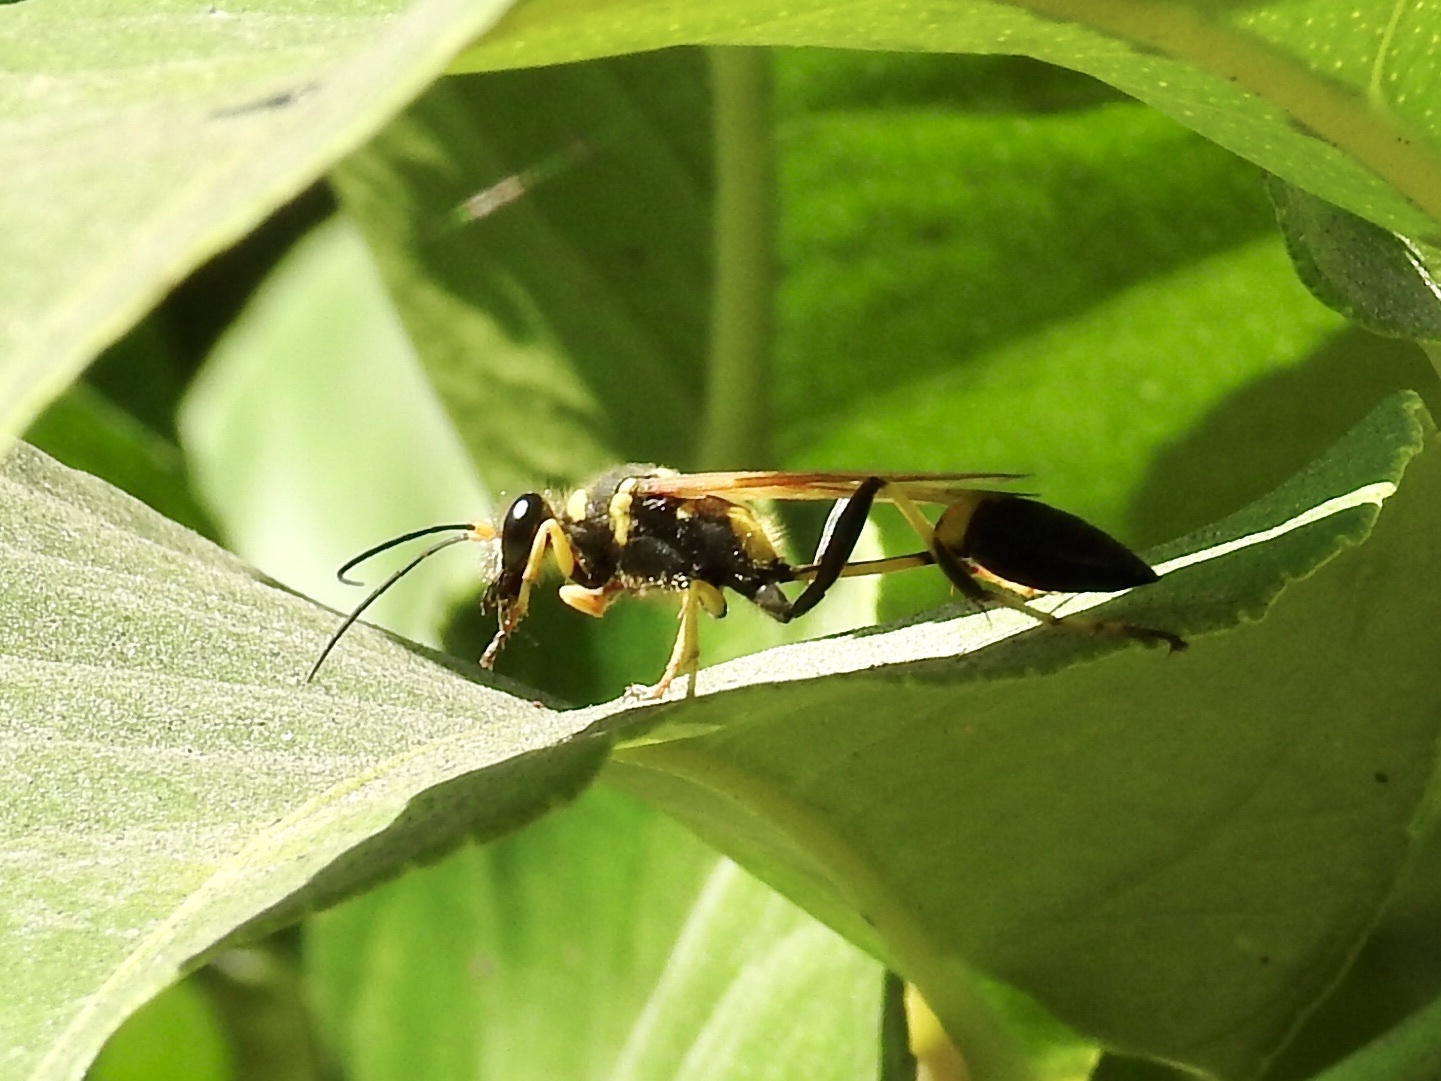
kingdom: Animalia
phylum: Arthropoda
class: Insecta
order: Hymenoptera
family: Sphecidae
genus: Sceliphron
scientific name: Sceliphron caementarium
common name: Mud dauber
